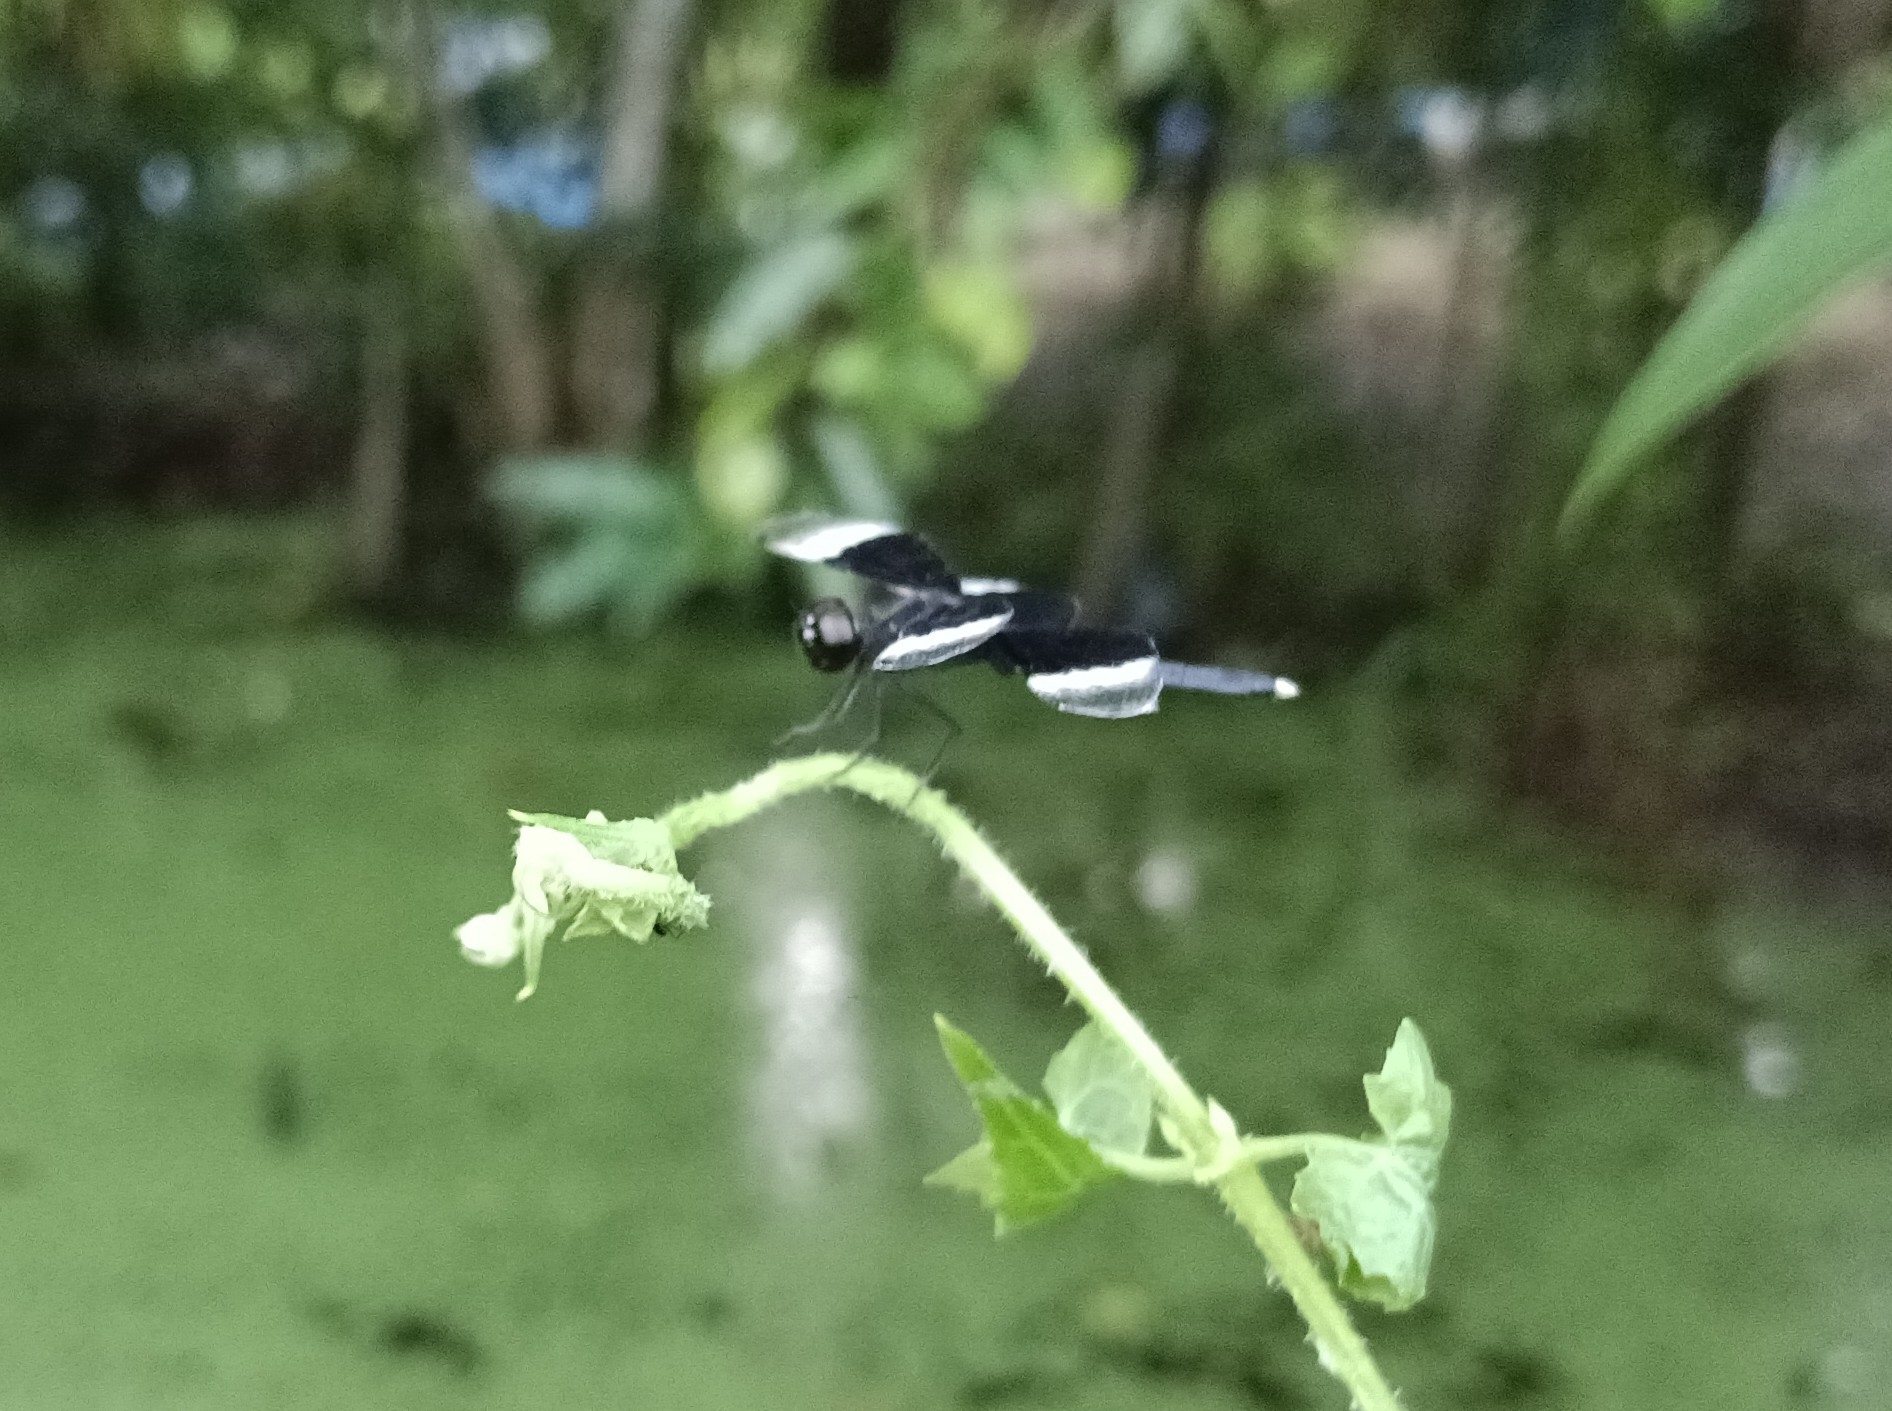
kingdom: Animalia
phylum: Arthropoda
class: Insecta
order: Odonata
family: Libellulidae
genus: Neurothemis
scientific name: Neurothemis tullia
